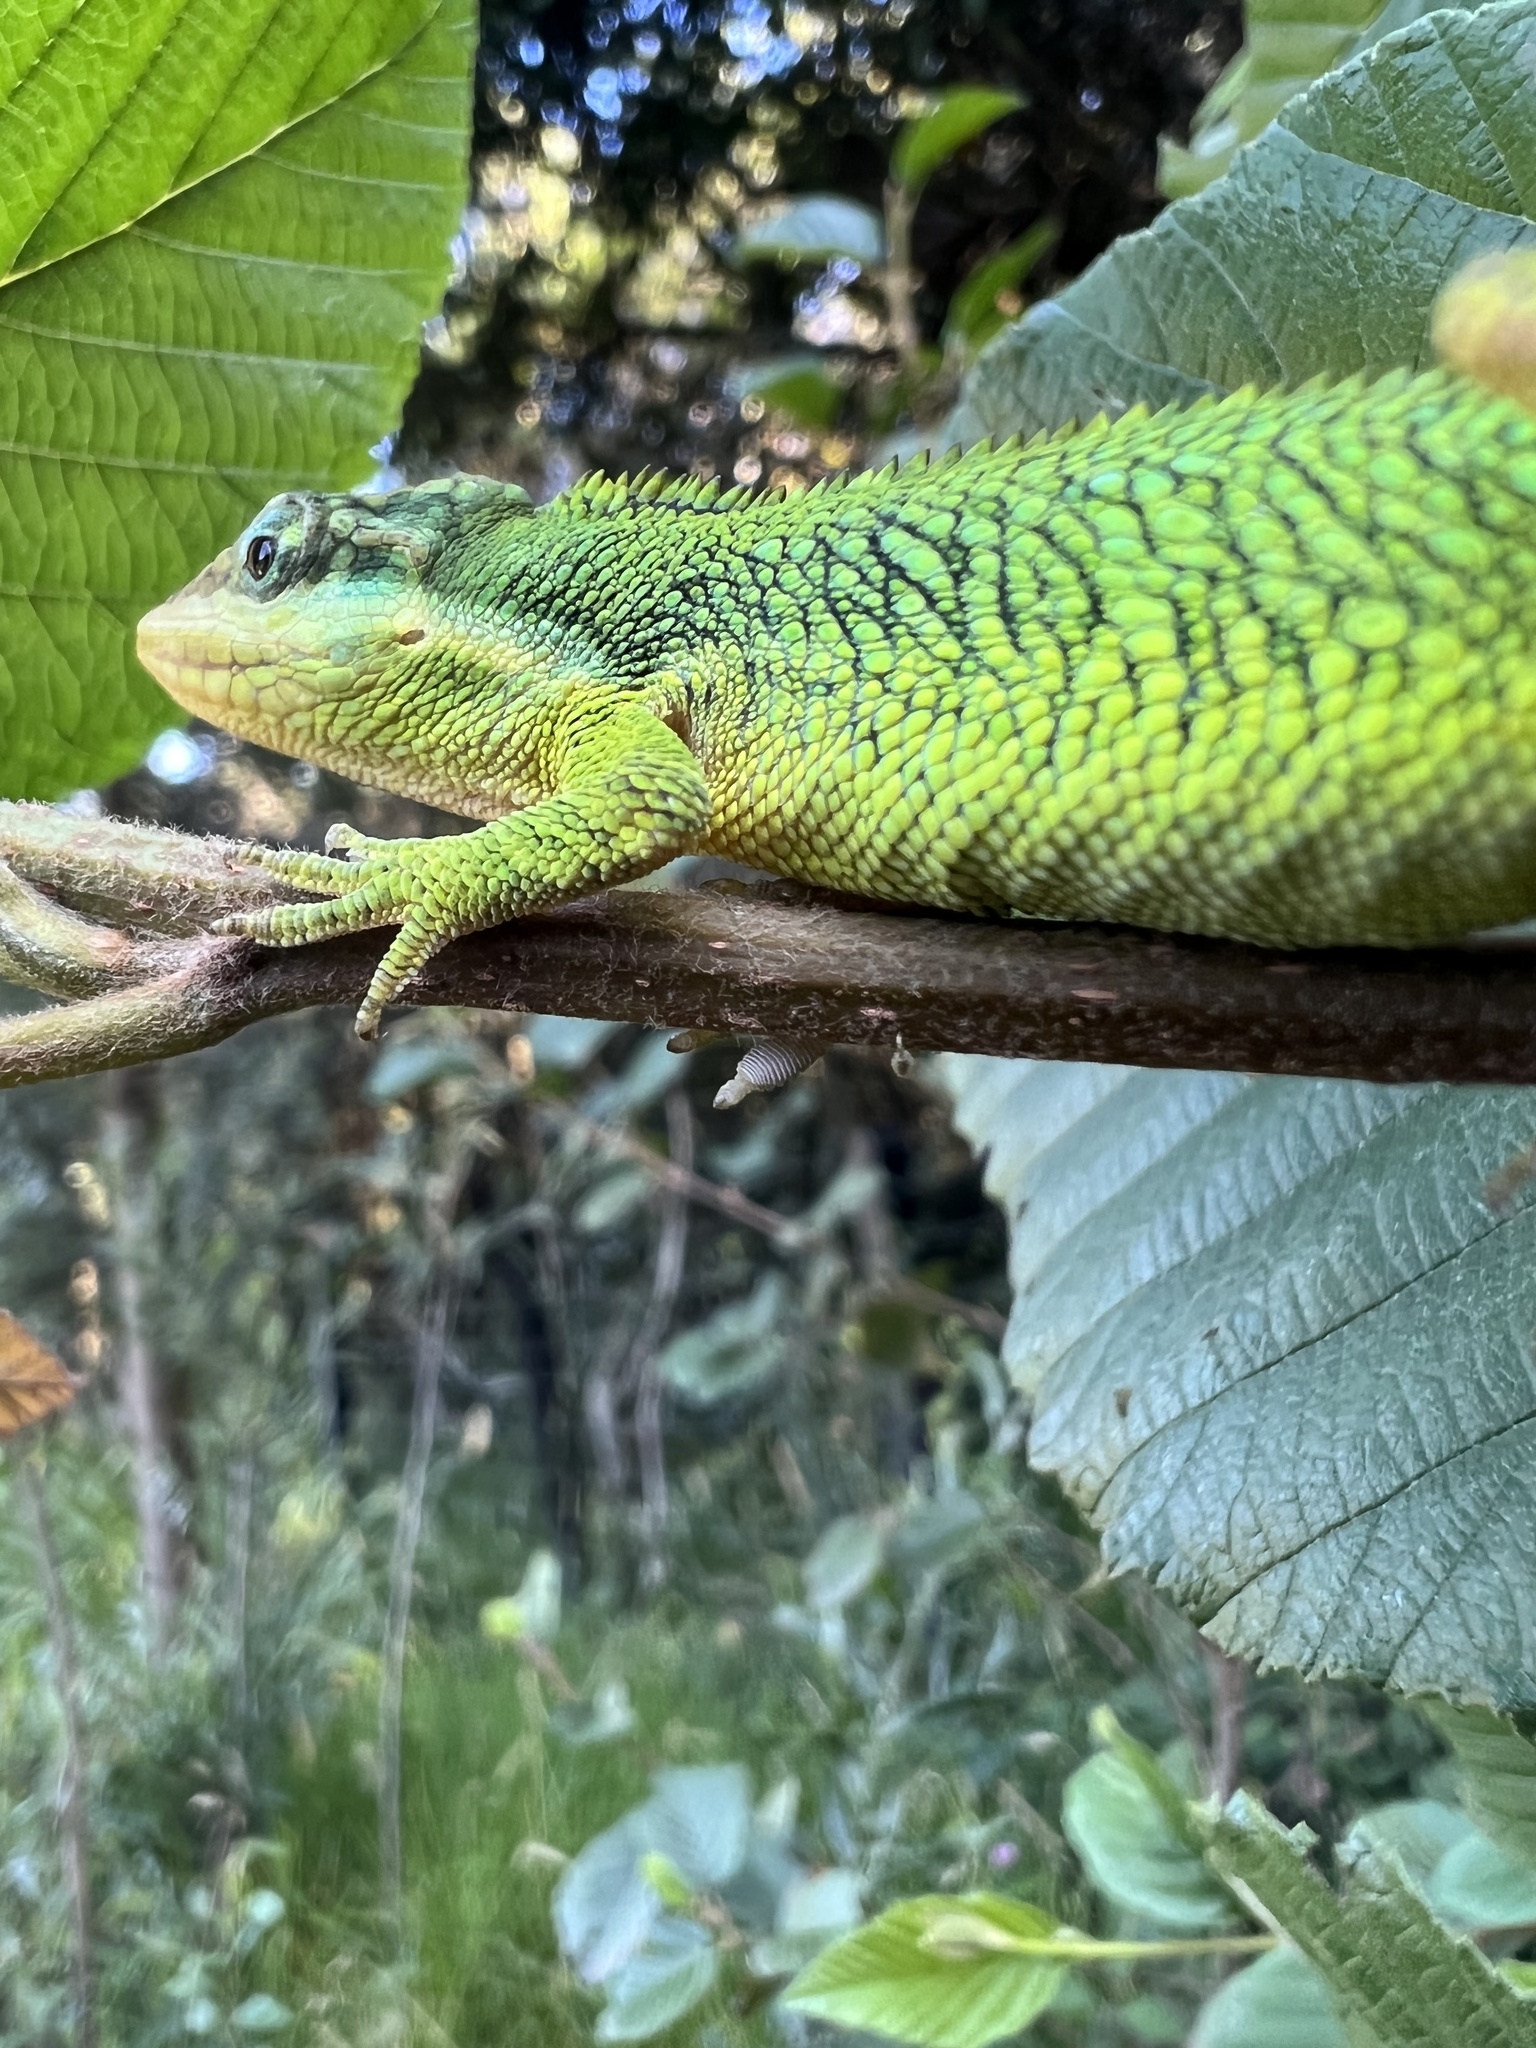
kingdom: Animalia
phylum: Chordata
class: Squamata
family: Dactyloidae
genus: Anolis
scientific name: Anolis heterodermus
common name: Flat andes anole
